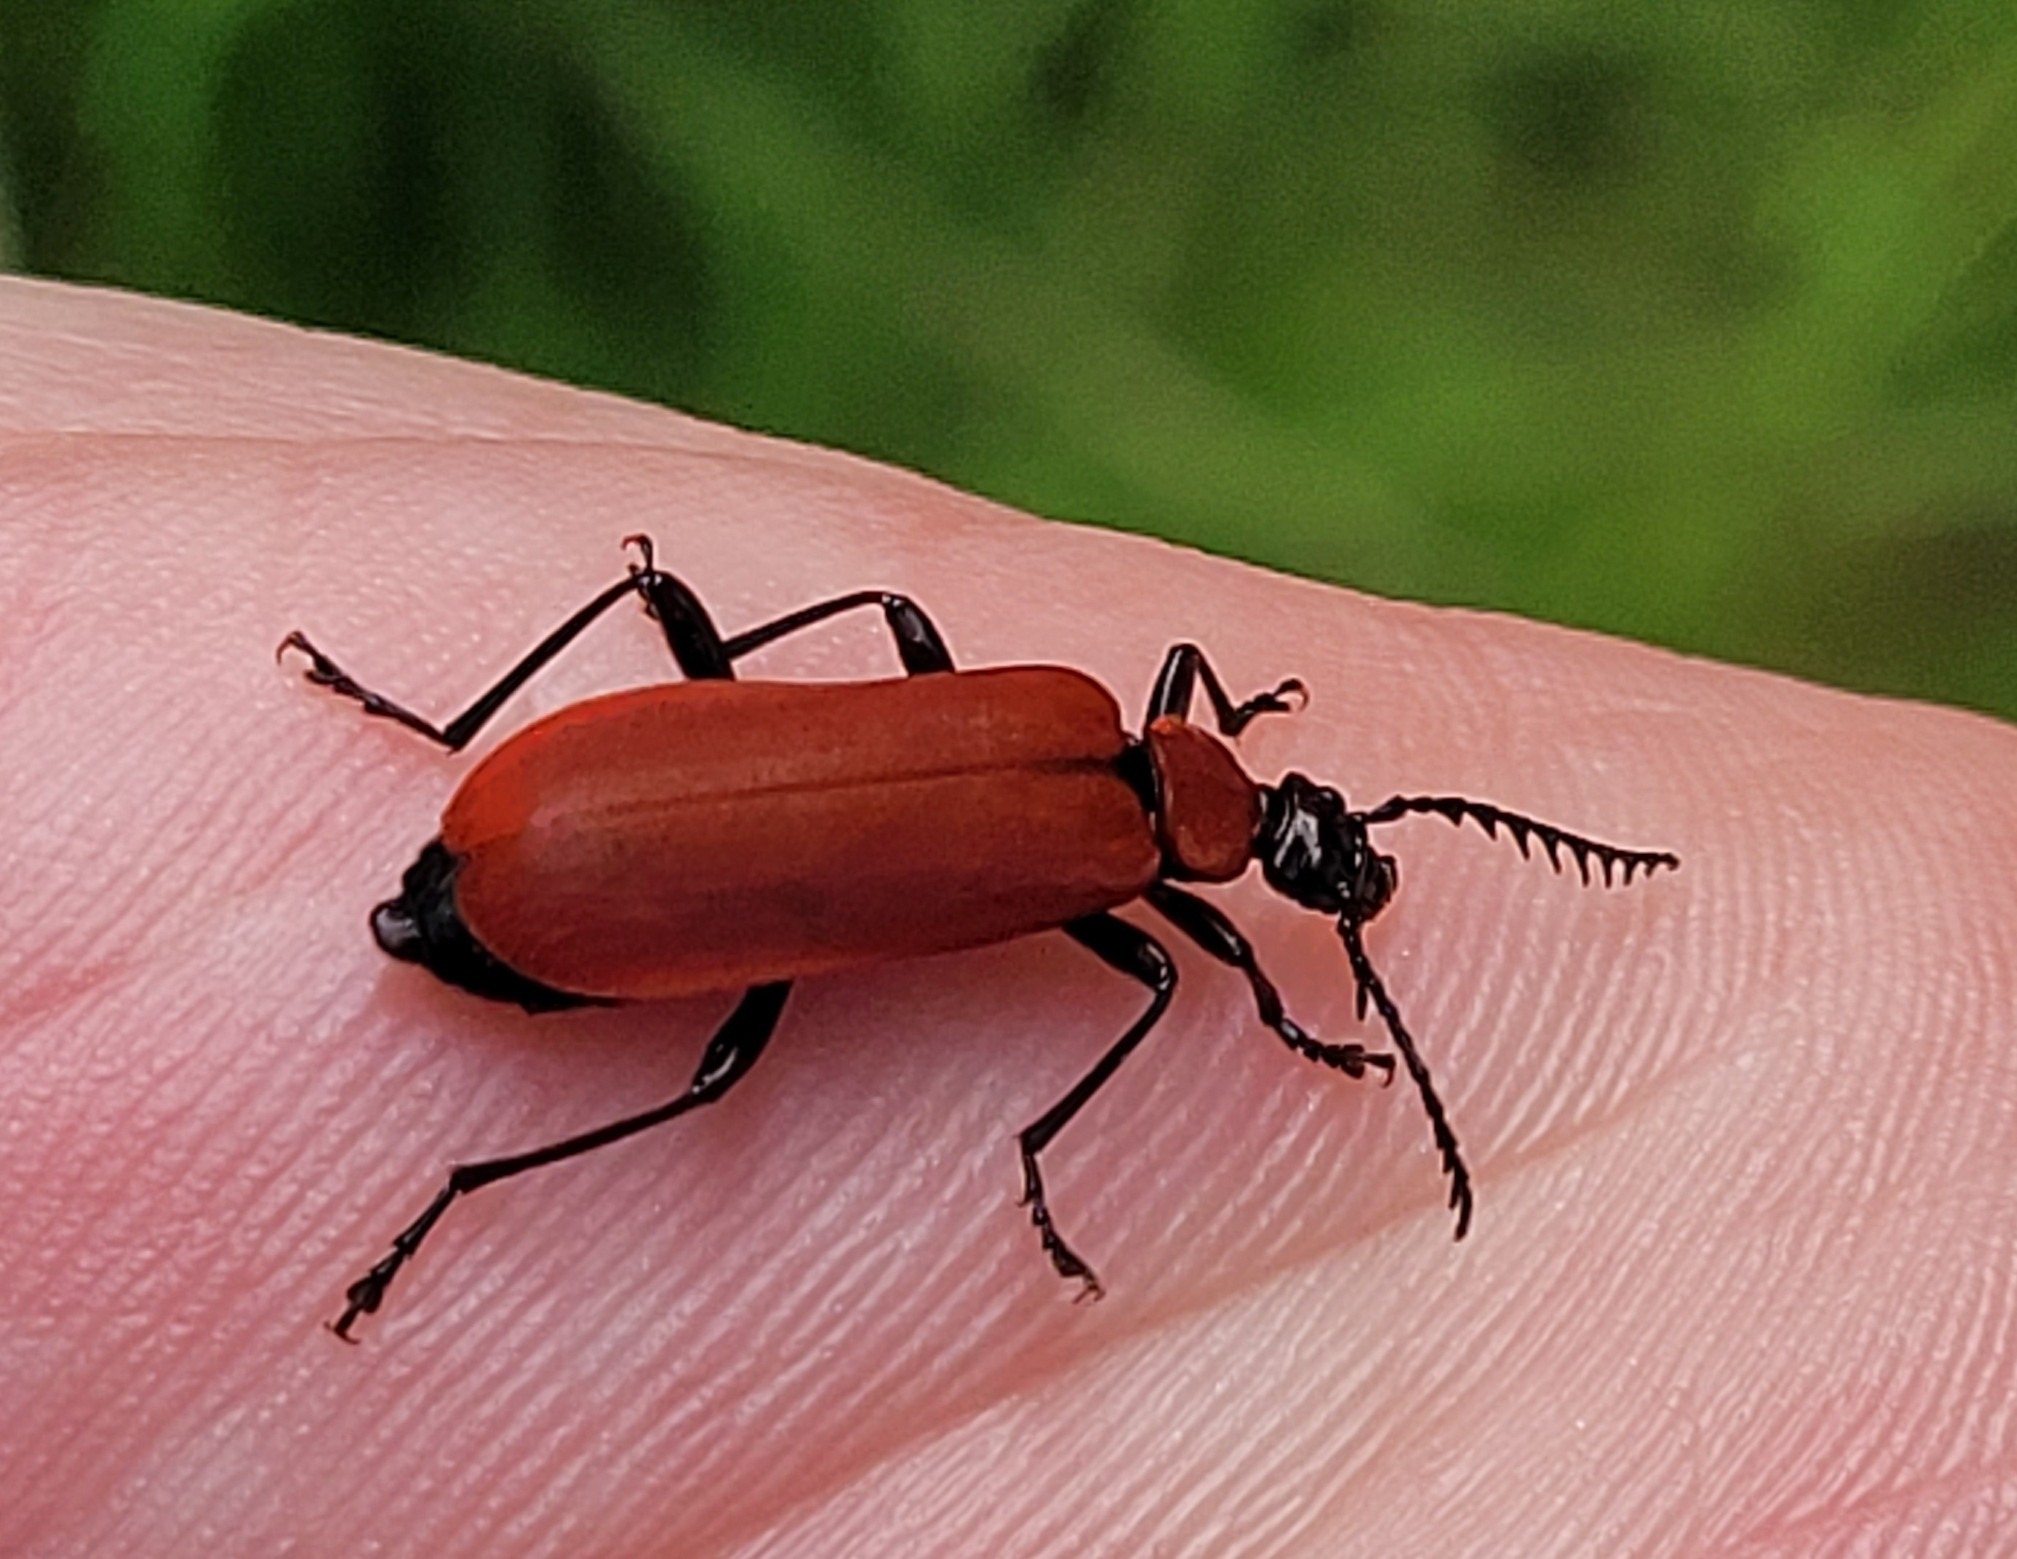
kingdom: Animalia
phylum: Arthropoda
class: Insecta
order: Coleoptera
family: Pyrochroidae
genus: Pyrochroa
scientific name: Pyrochroa coccinea
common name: Black-headed cardinal beetle
